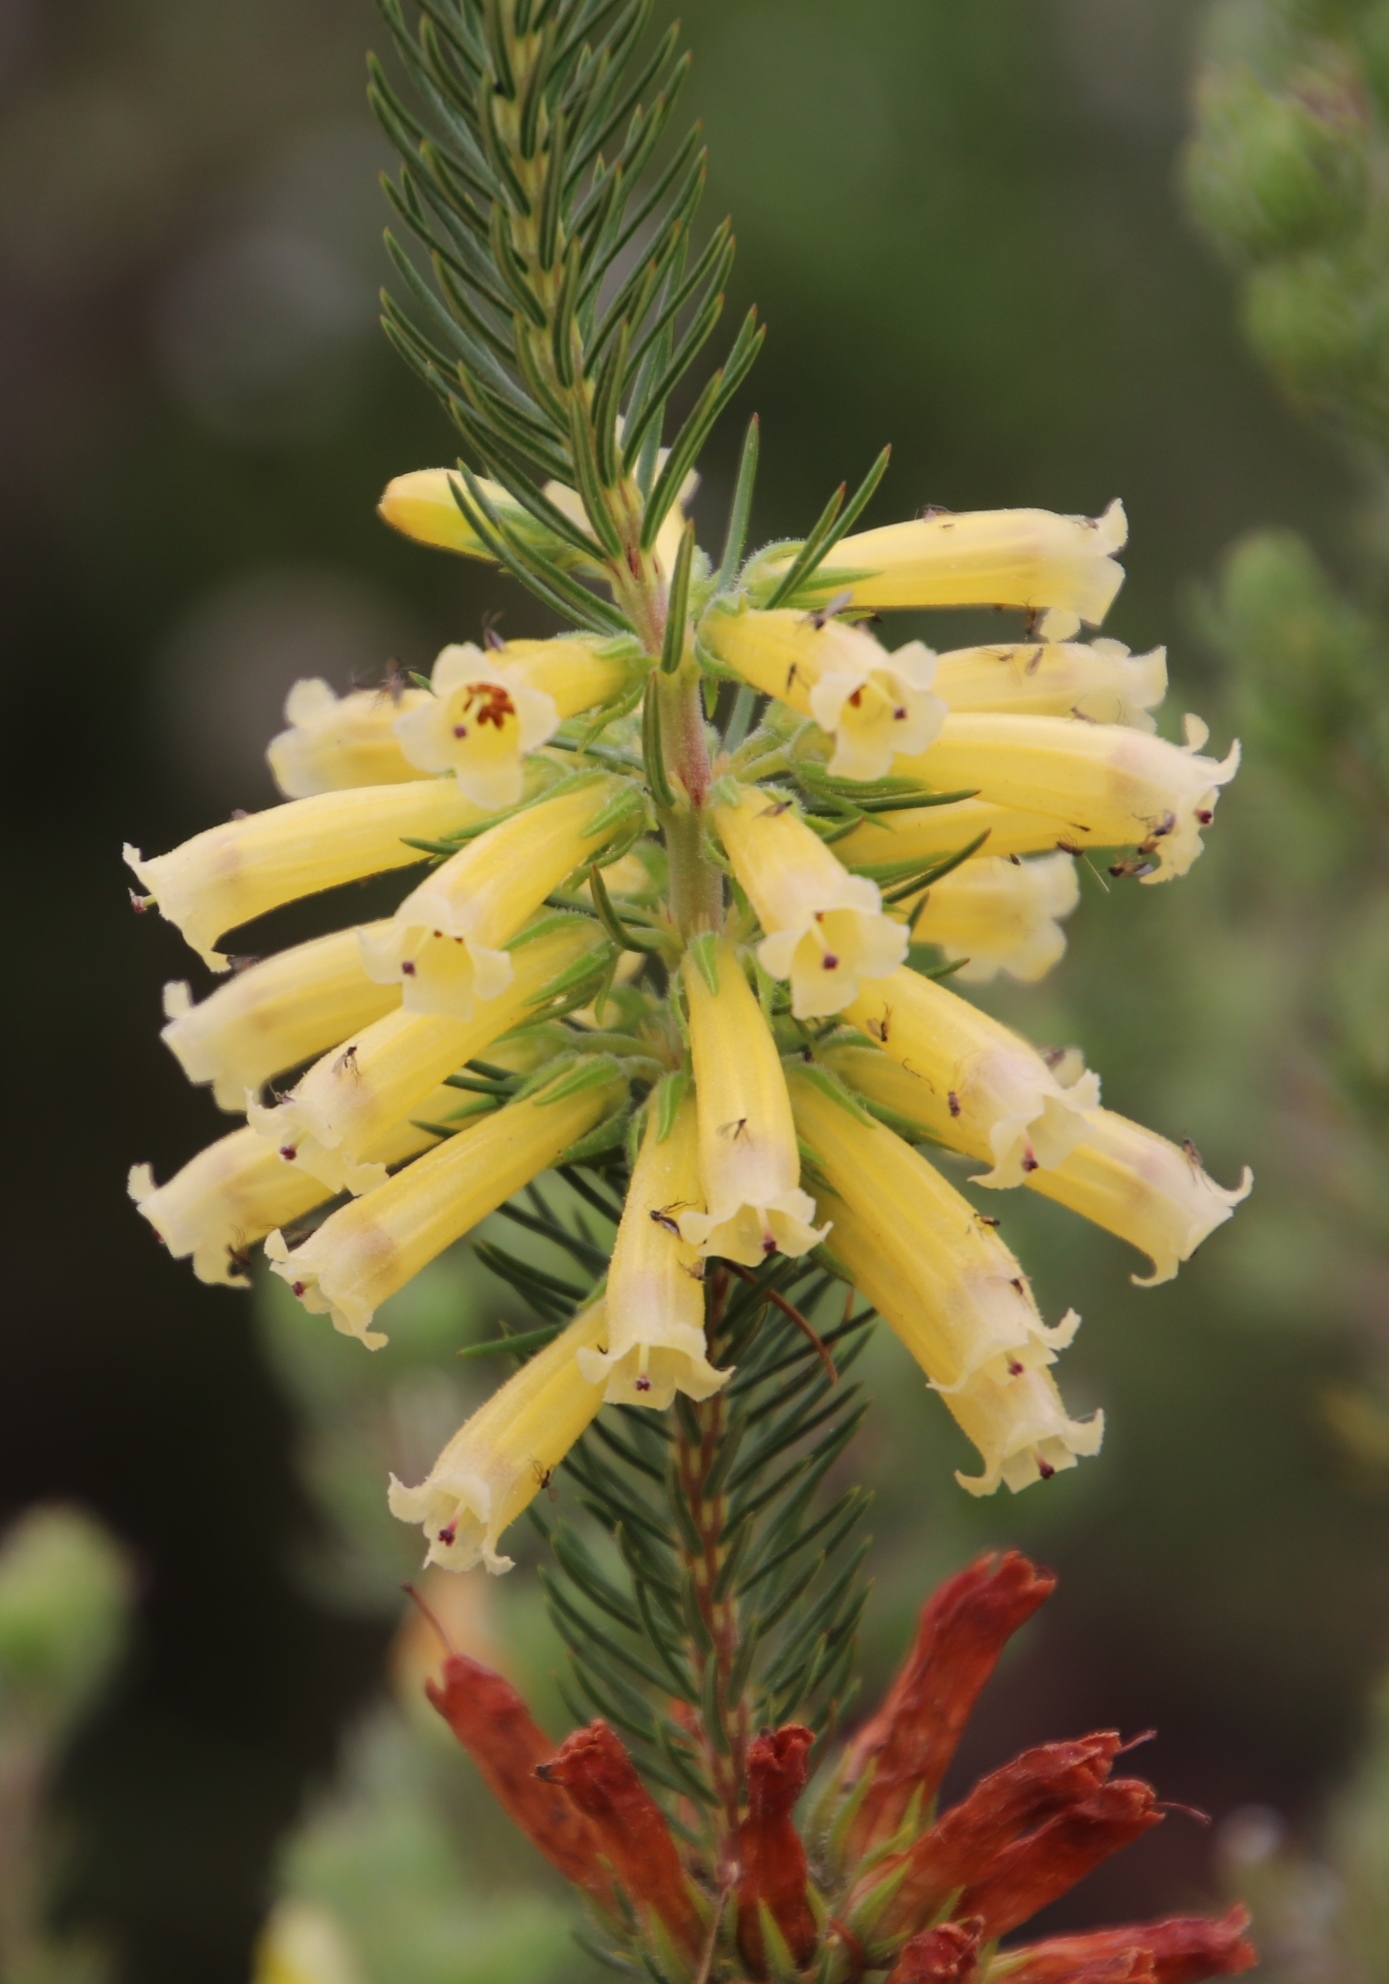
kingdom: Plantae
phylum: Tracheophyta
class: Magnoliopsida
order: Ericales
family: Ericaceae
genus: Erica
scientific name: Erica viscaria
